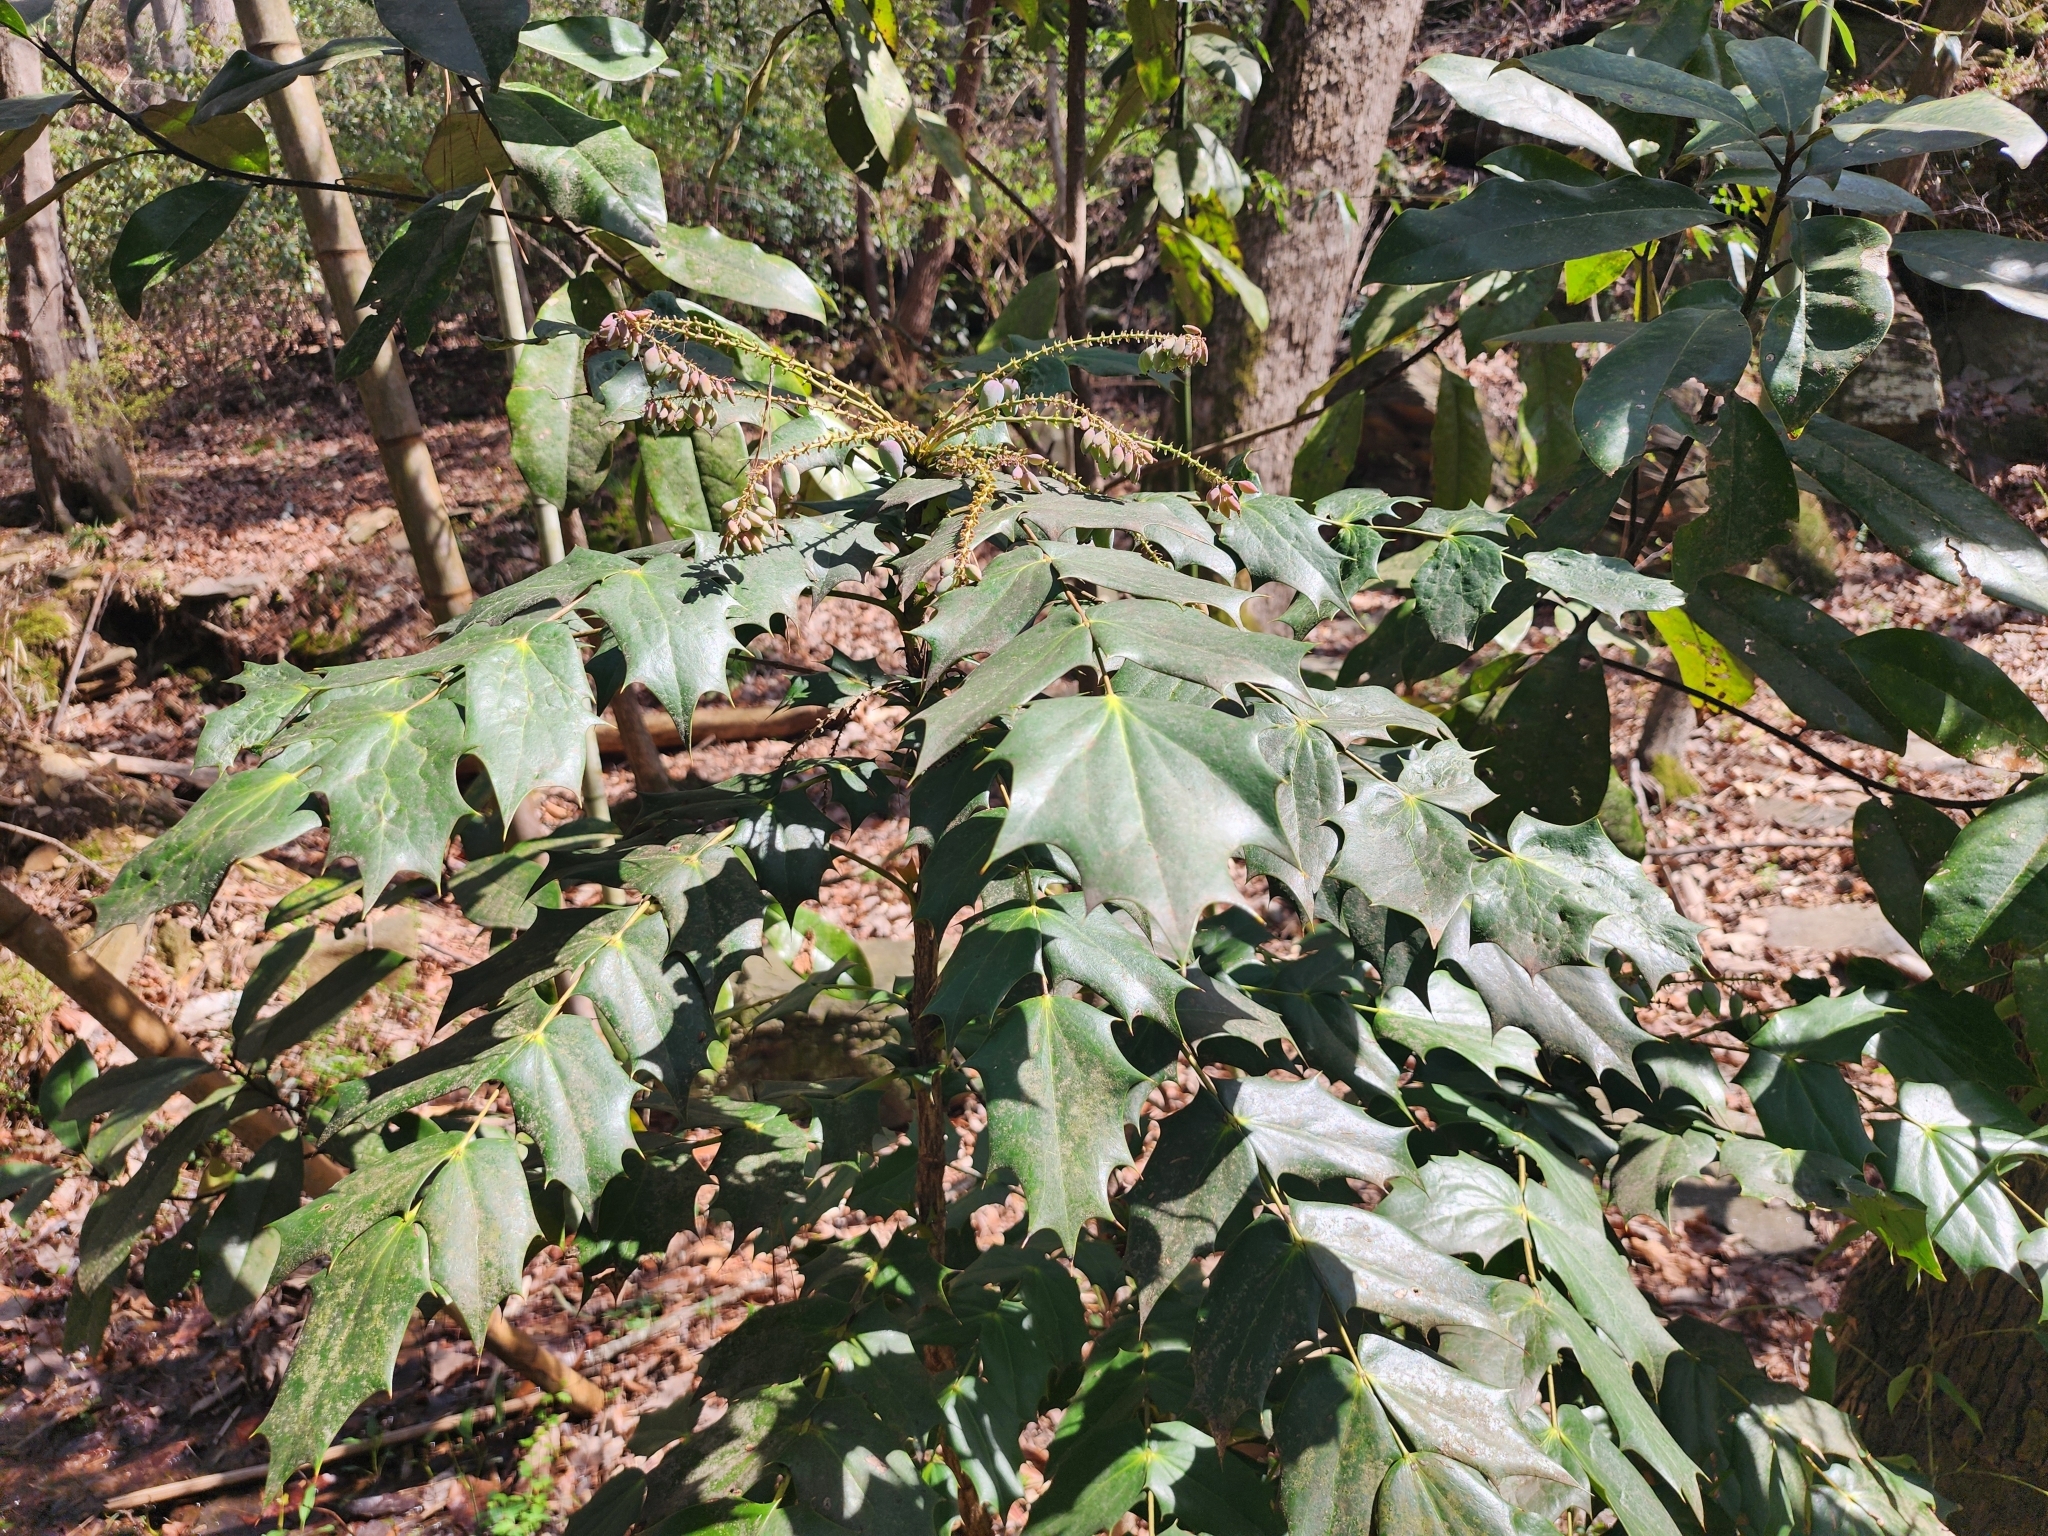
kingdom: Plantae
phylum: Tracheophyta
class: Magnoliopsida
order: Ranunculales
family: Berberidaceae
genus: Mahonia
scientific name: Mahonia bealei
